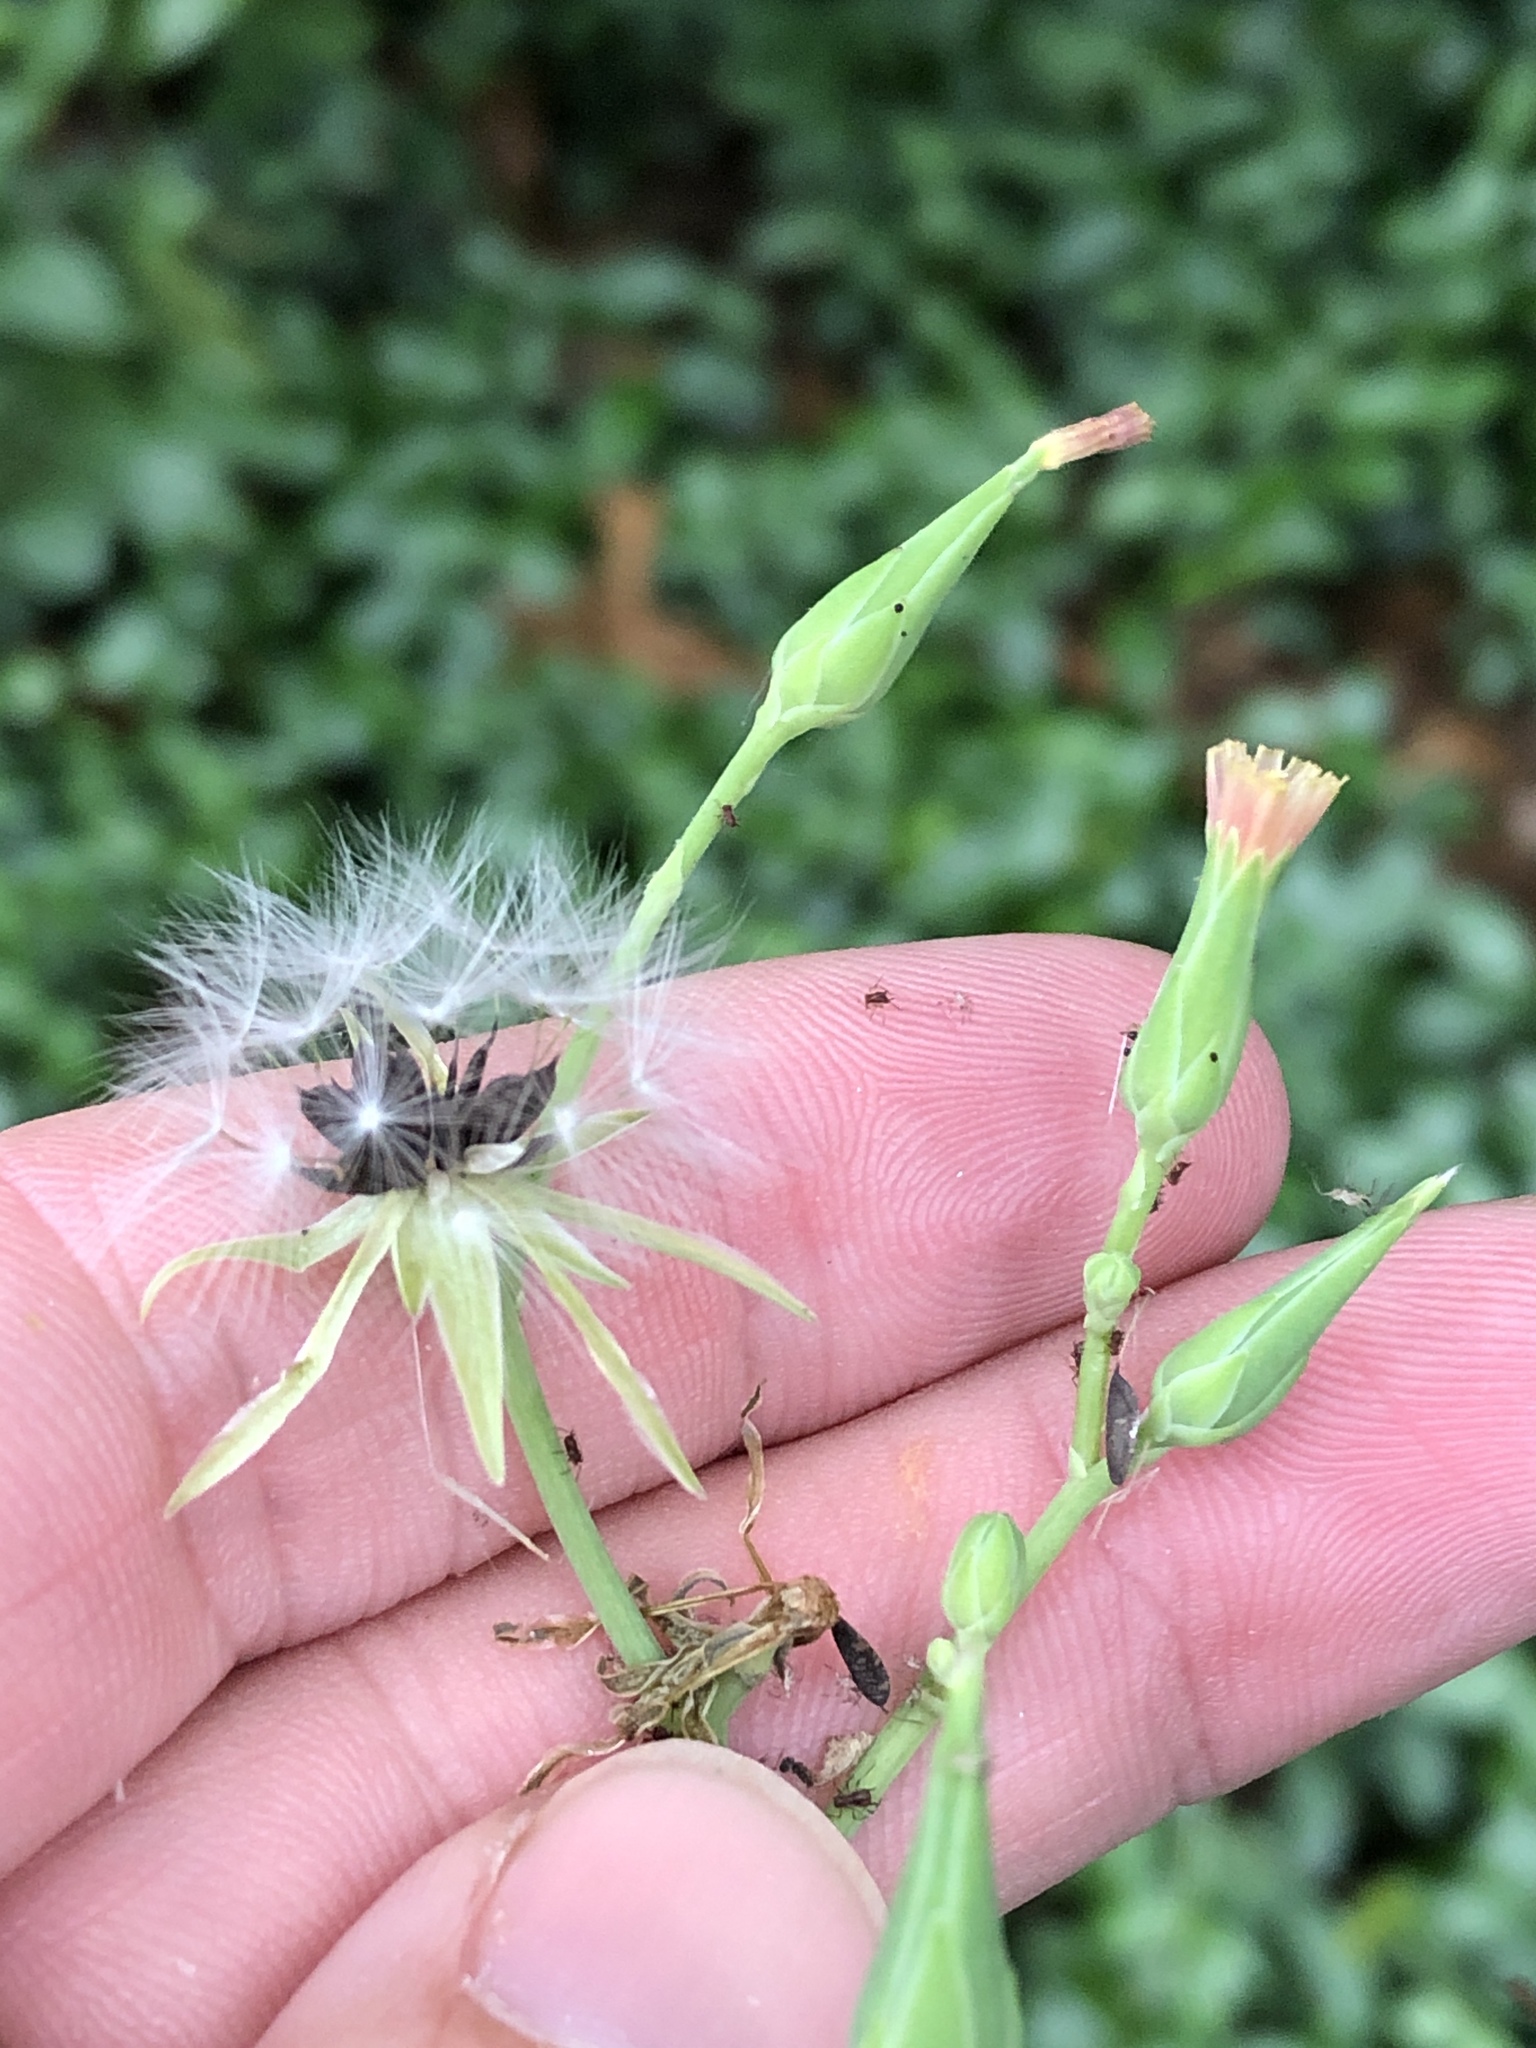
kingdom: Plantae
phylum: Tracheophyta
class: Magnoliopsida
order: Asterales
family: Asteraceae
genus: Lactuca
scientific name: Lactuca ludoviciana
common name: Louisiana lettuce
